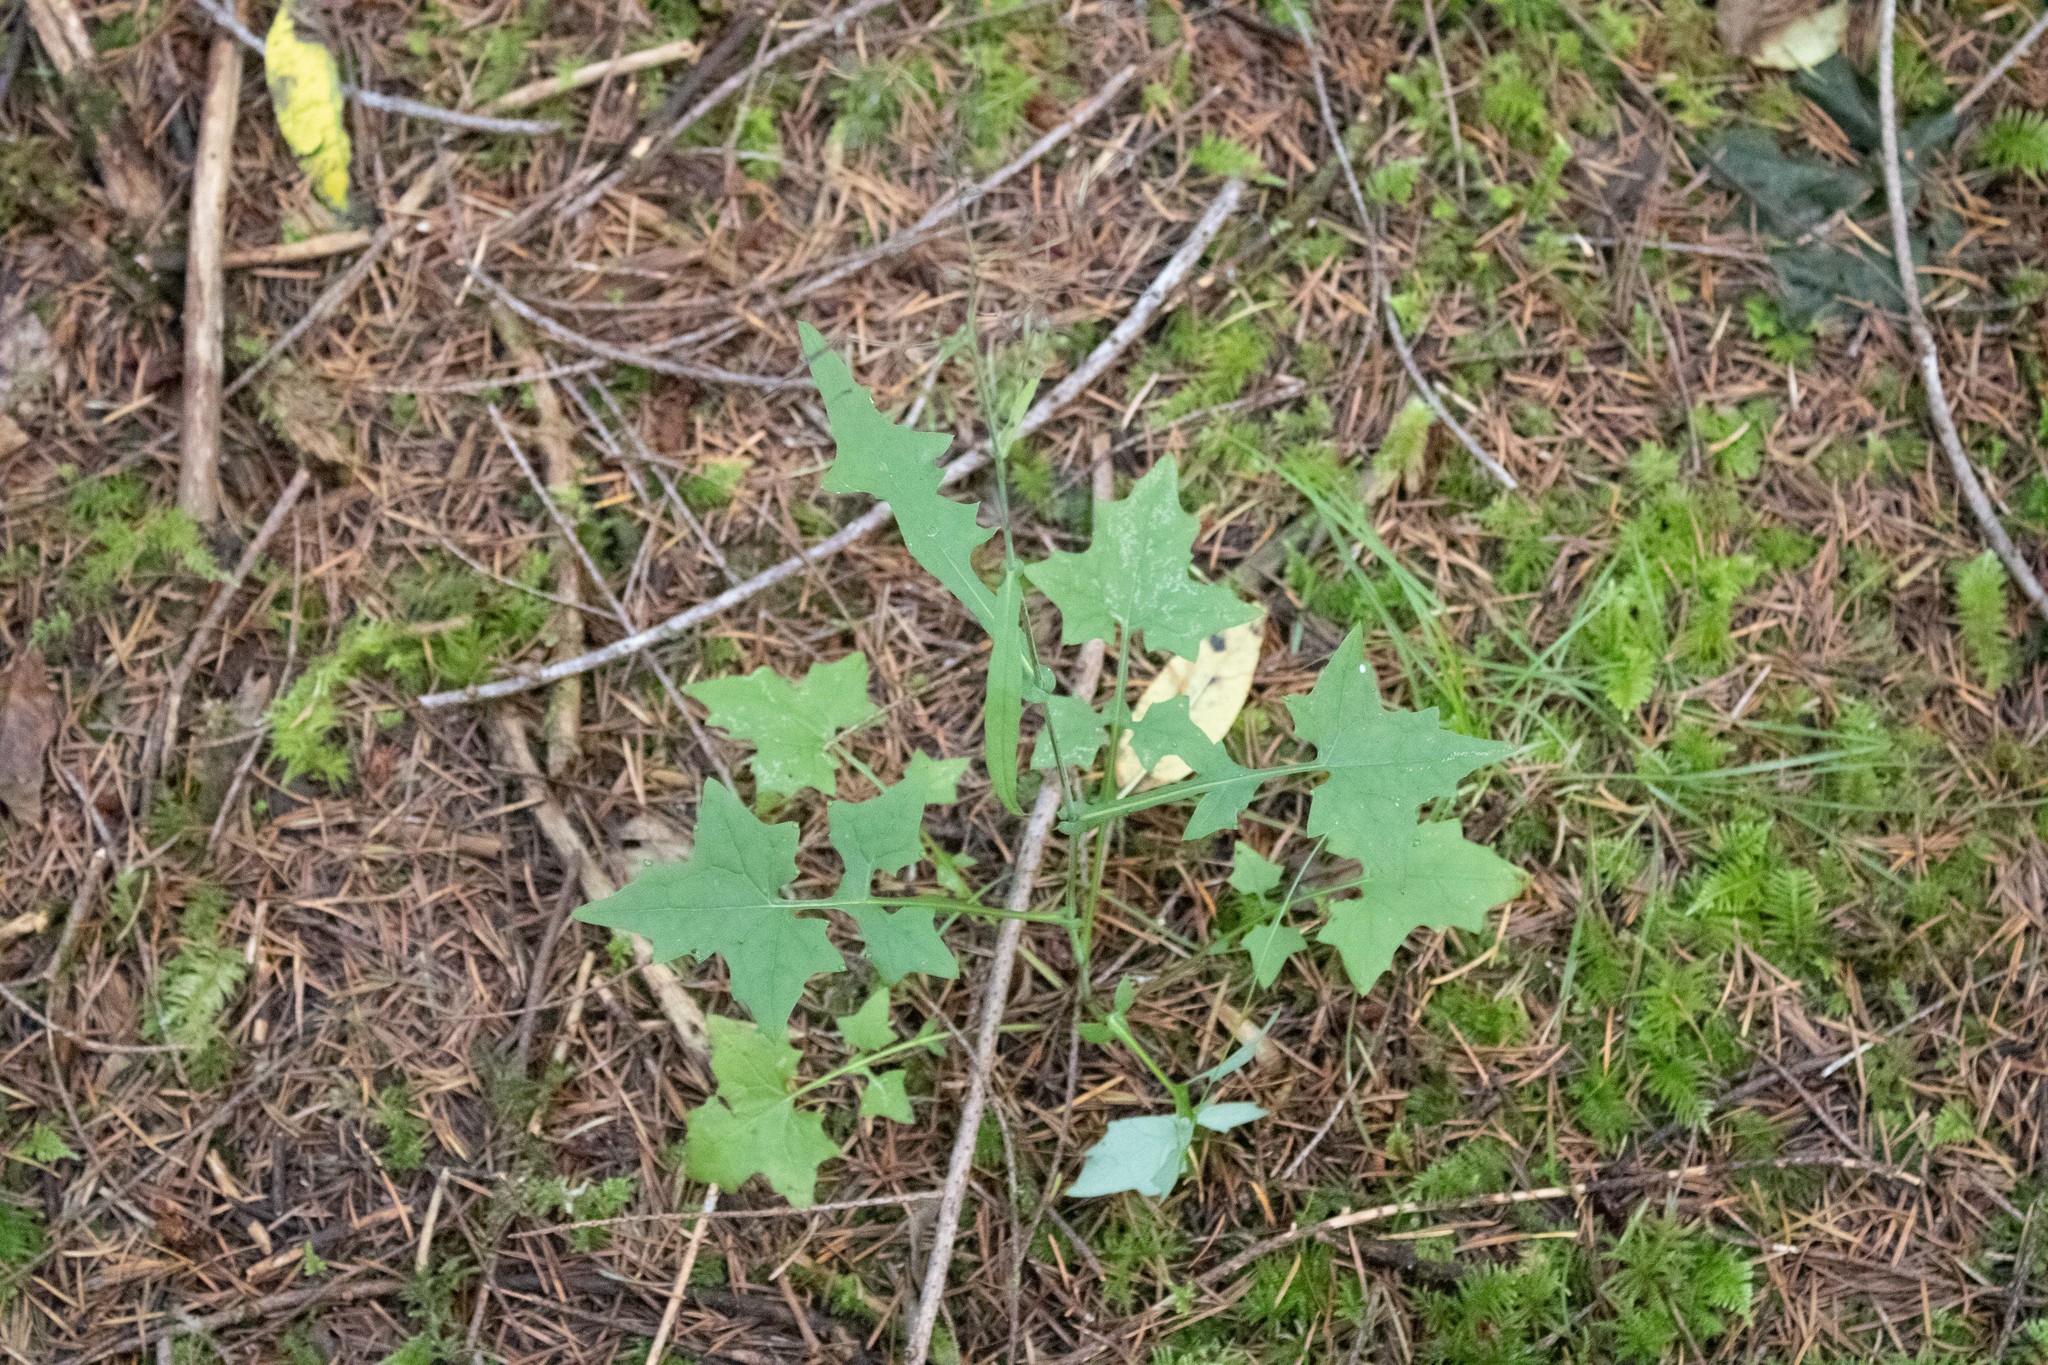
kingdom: Plantae
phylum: Tracheophyta
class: Magnoliopsida
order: Asterales
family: Asteraceae
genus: Mycelis
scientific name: Mycelis muralis
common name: Wall lettuce
